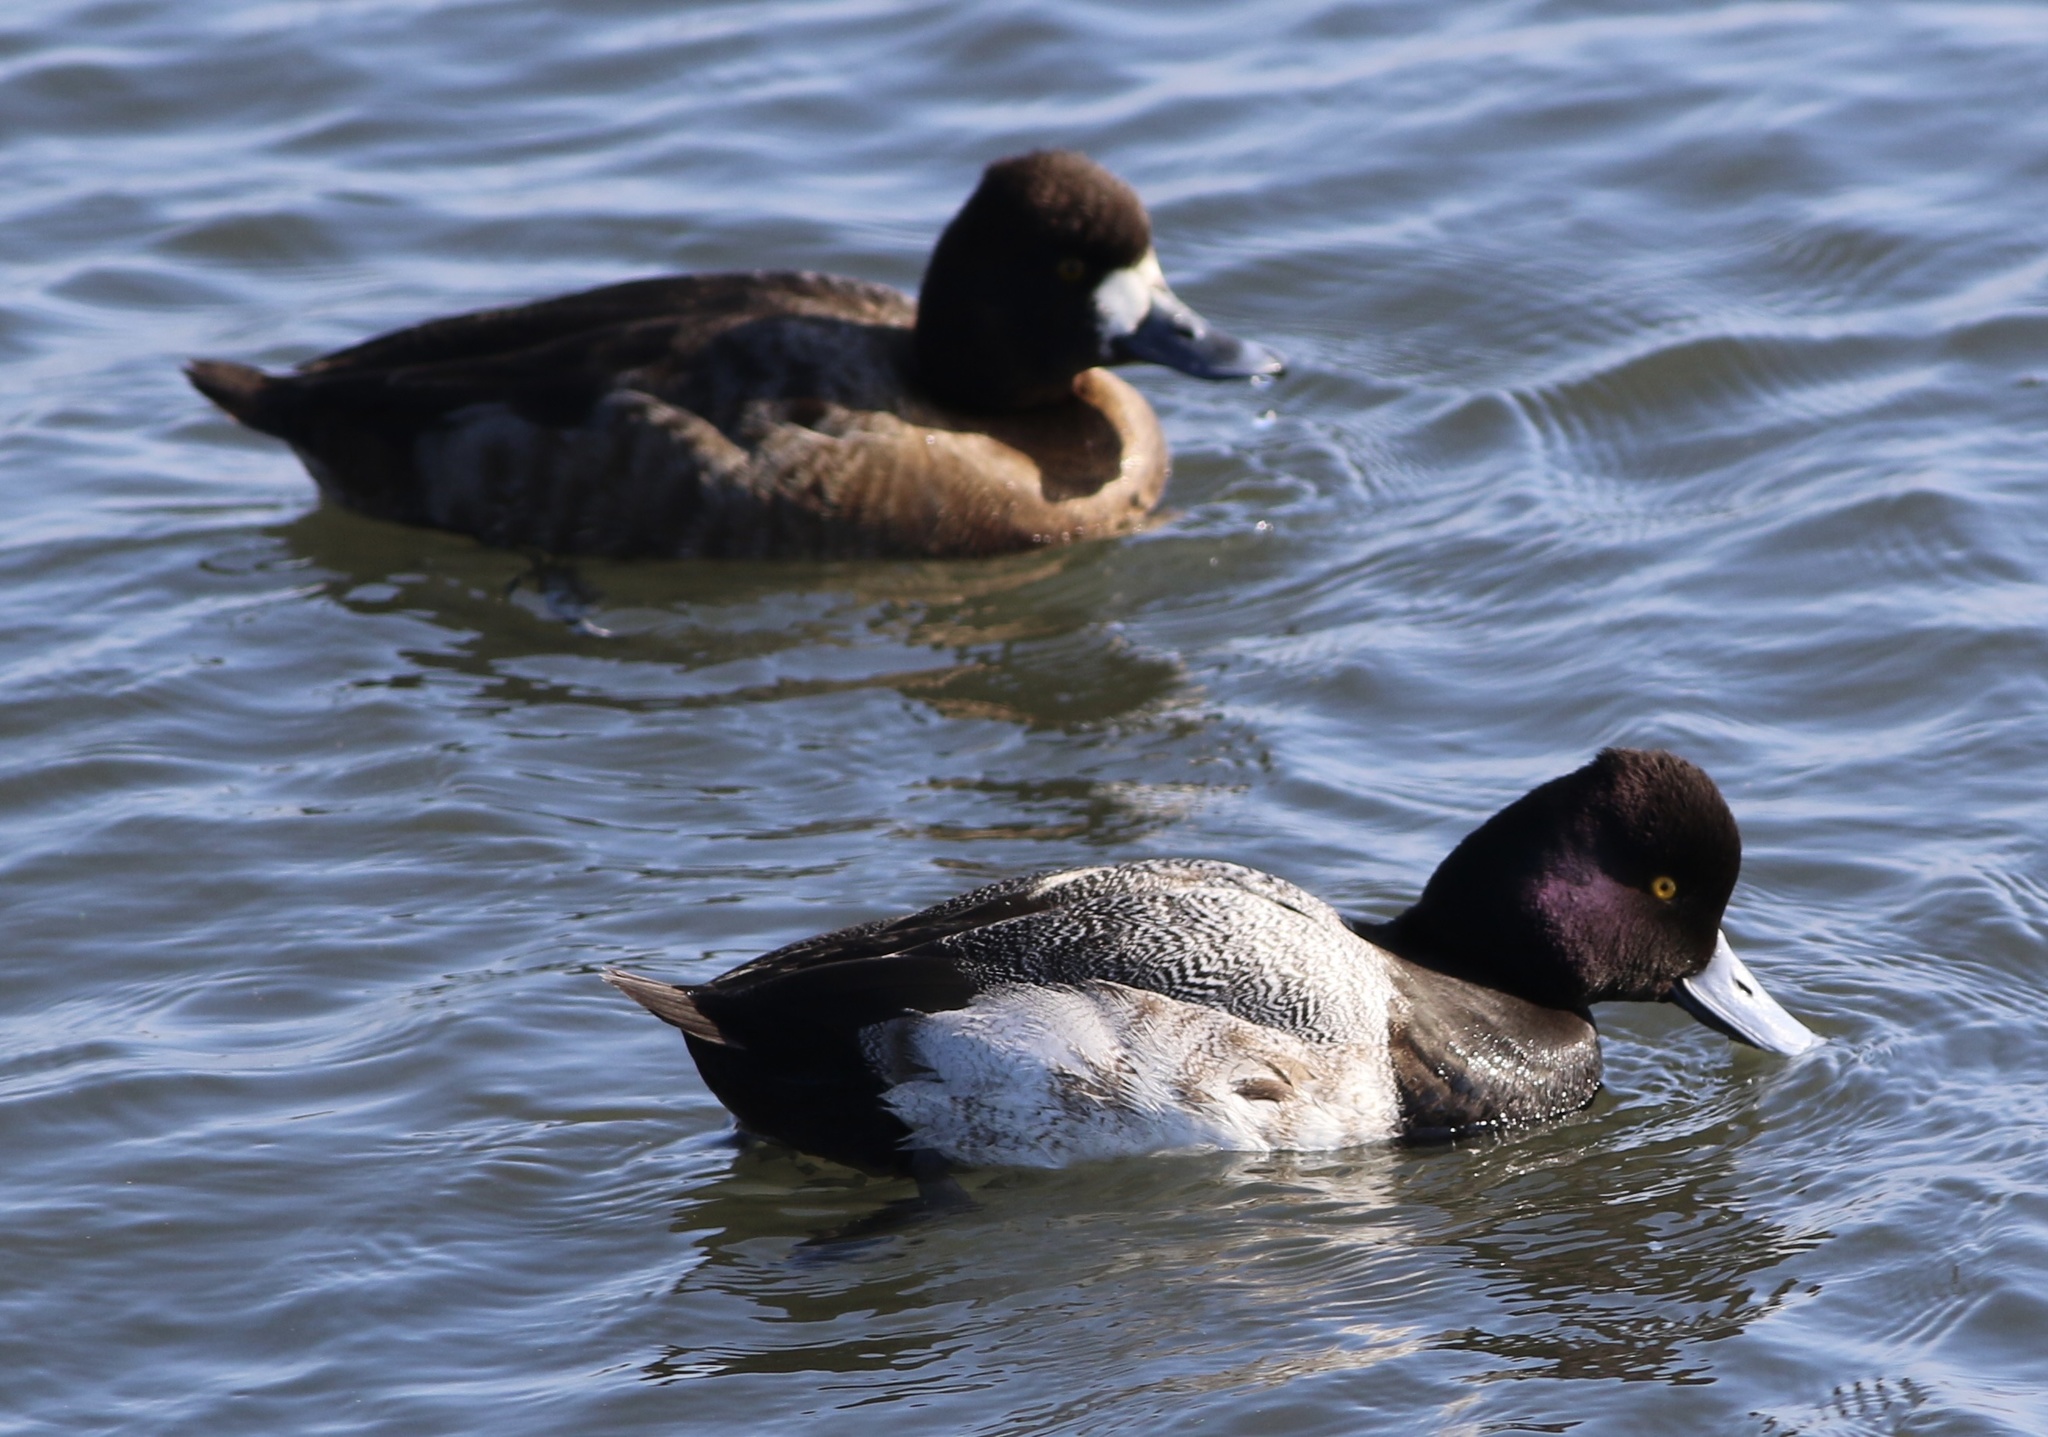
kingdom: Animalia
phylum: Chordata
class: Aves
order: Anseriformes
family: Anatidae
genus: Aythya
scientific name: Aythya affinis
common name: Lesser scaup
